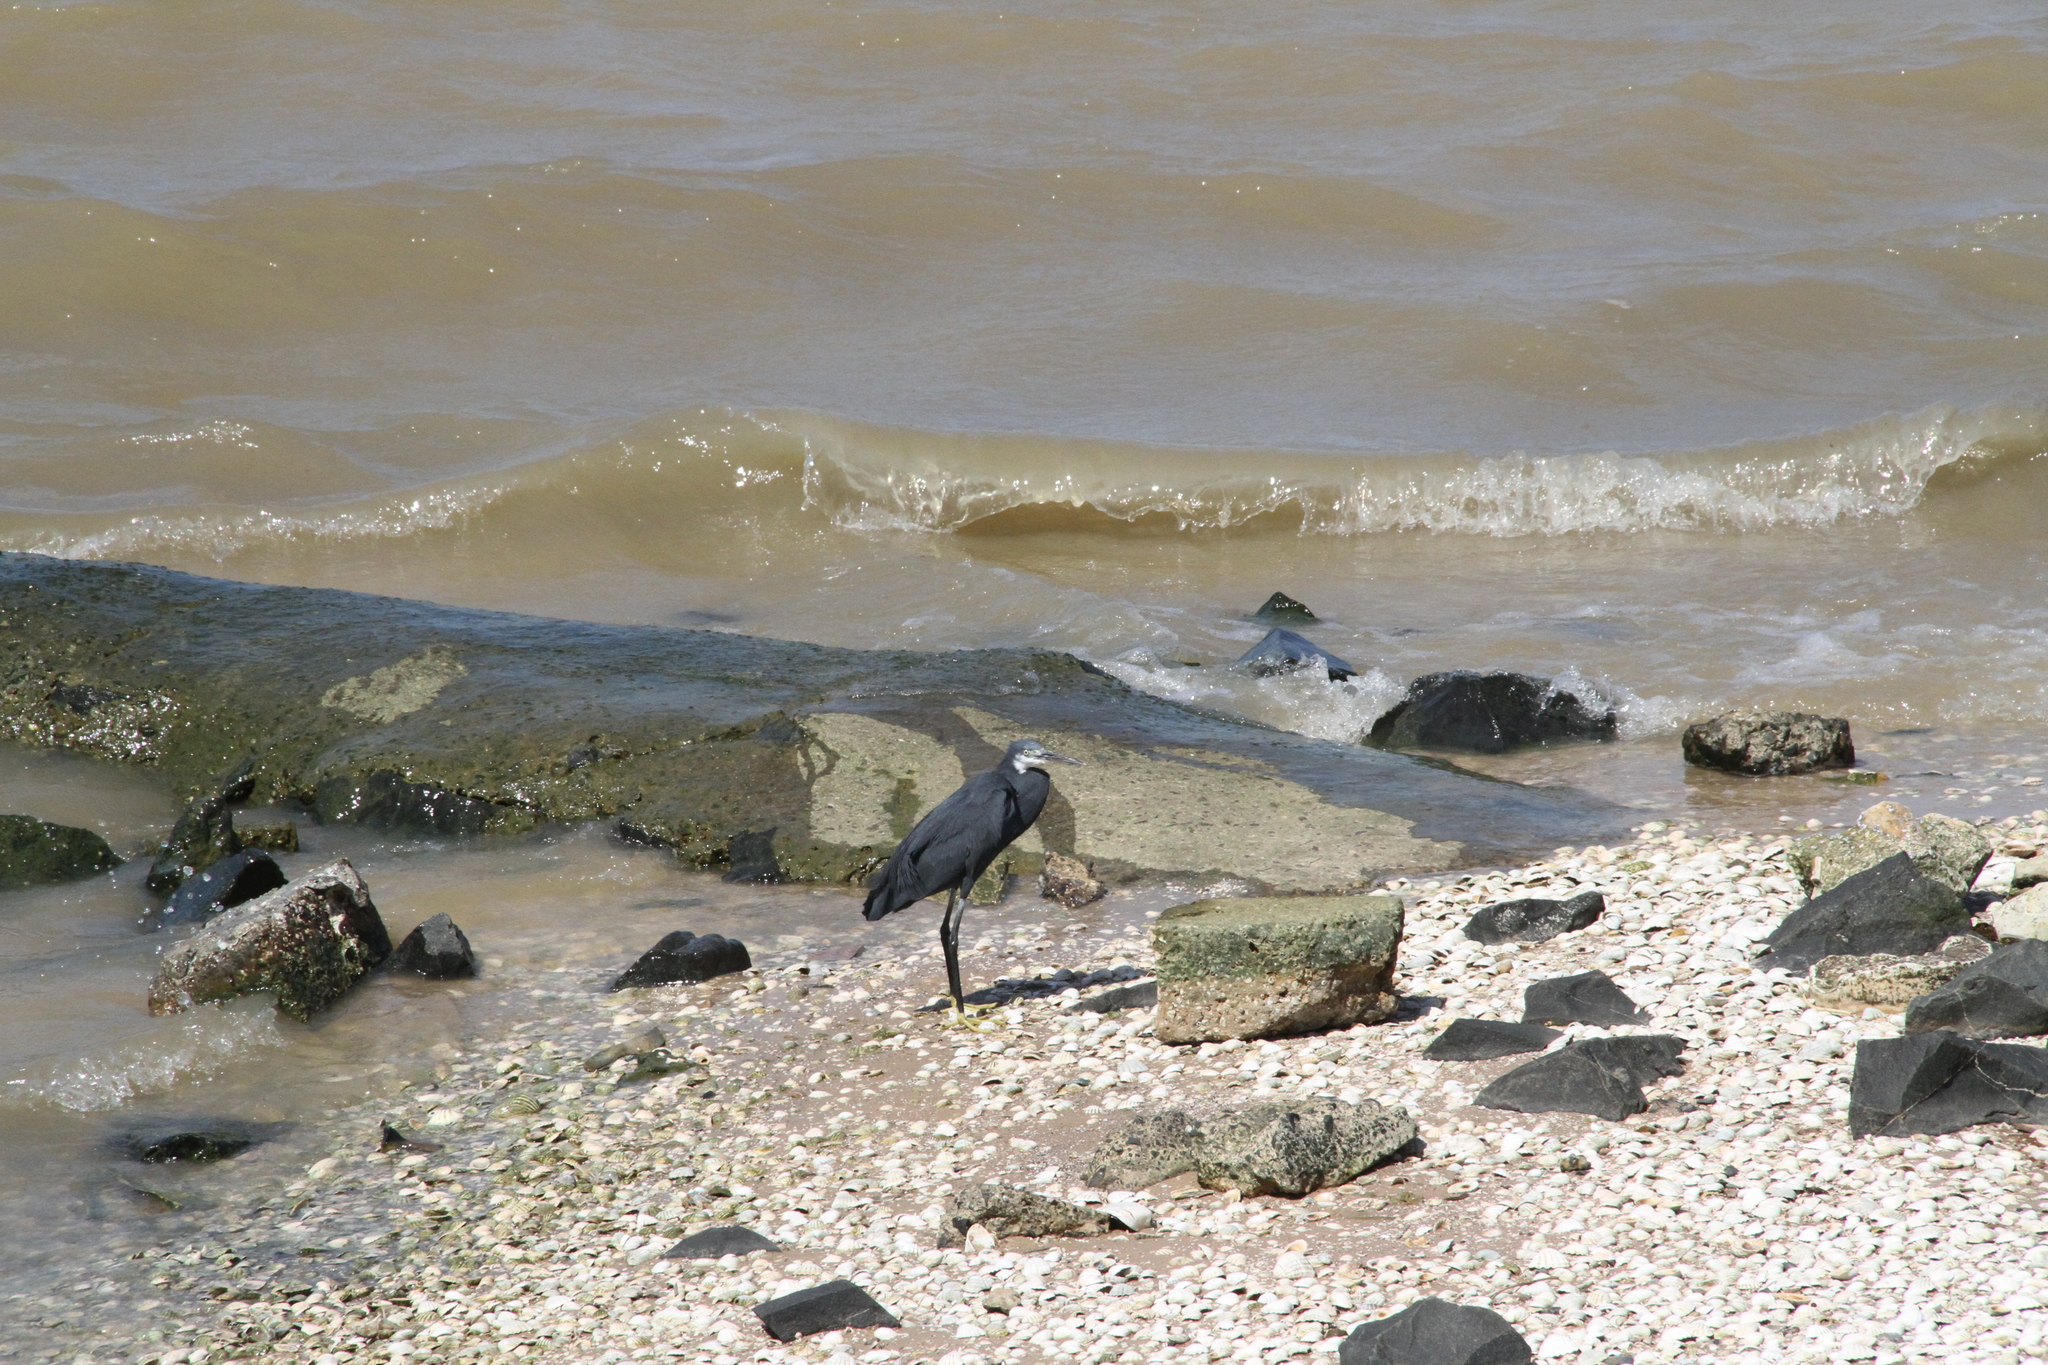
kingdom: Animalia
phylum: Chordata
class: Aves
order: Pelecaniformes
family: Ardeidae
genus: Egretta
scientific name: Egretta gularis
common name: Western reef-heron
